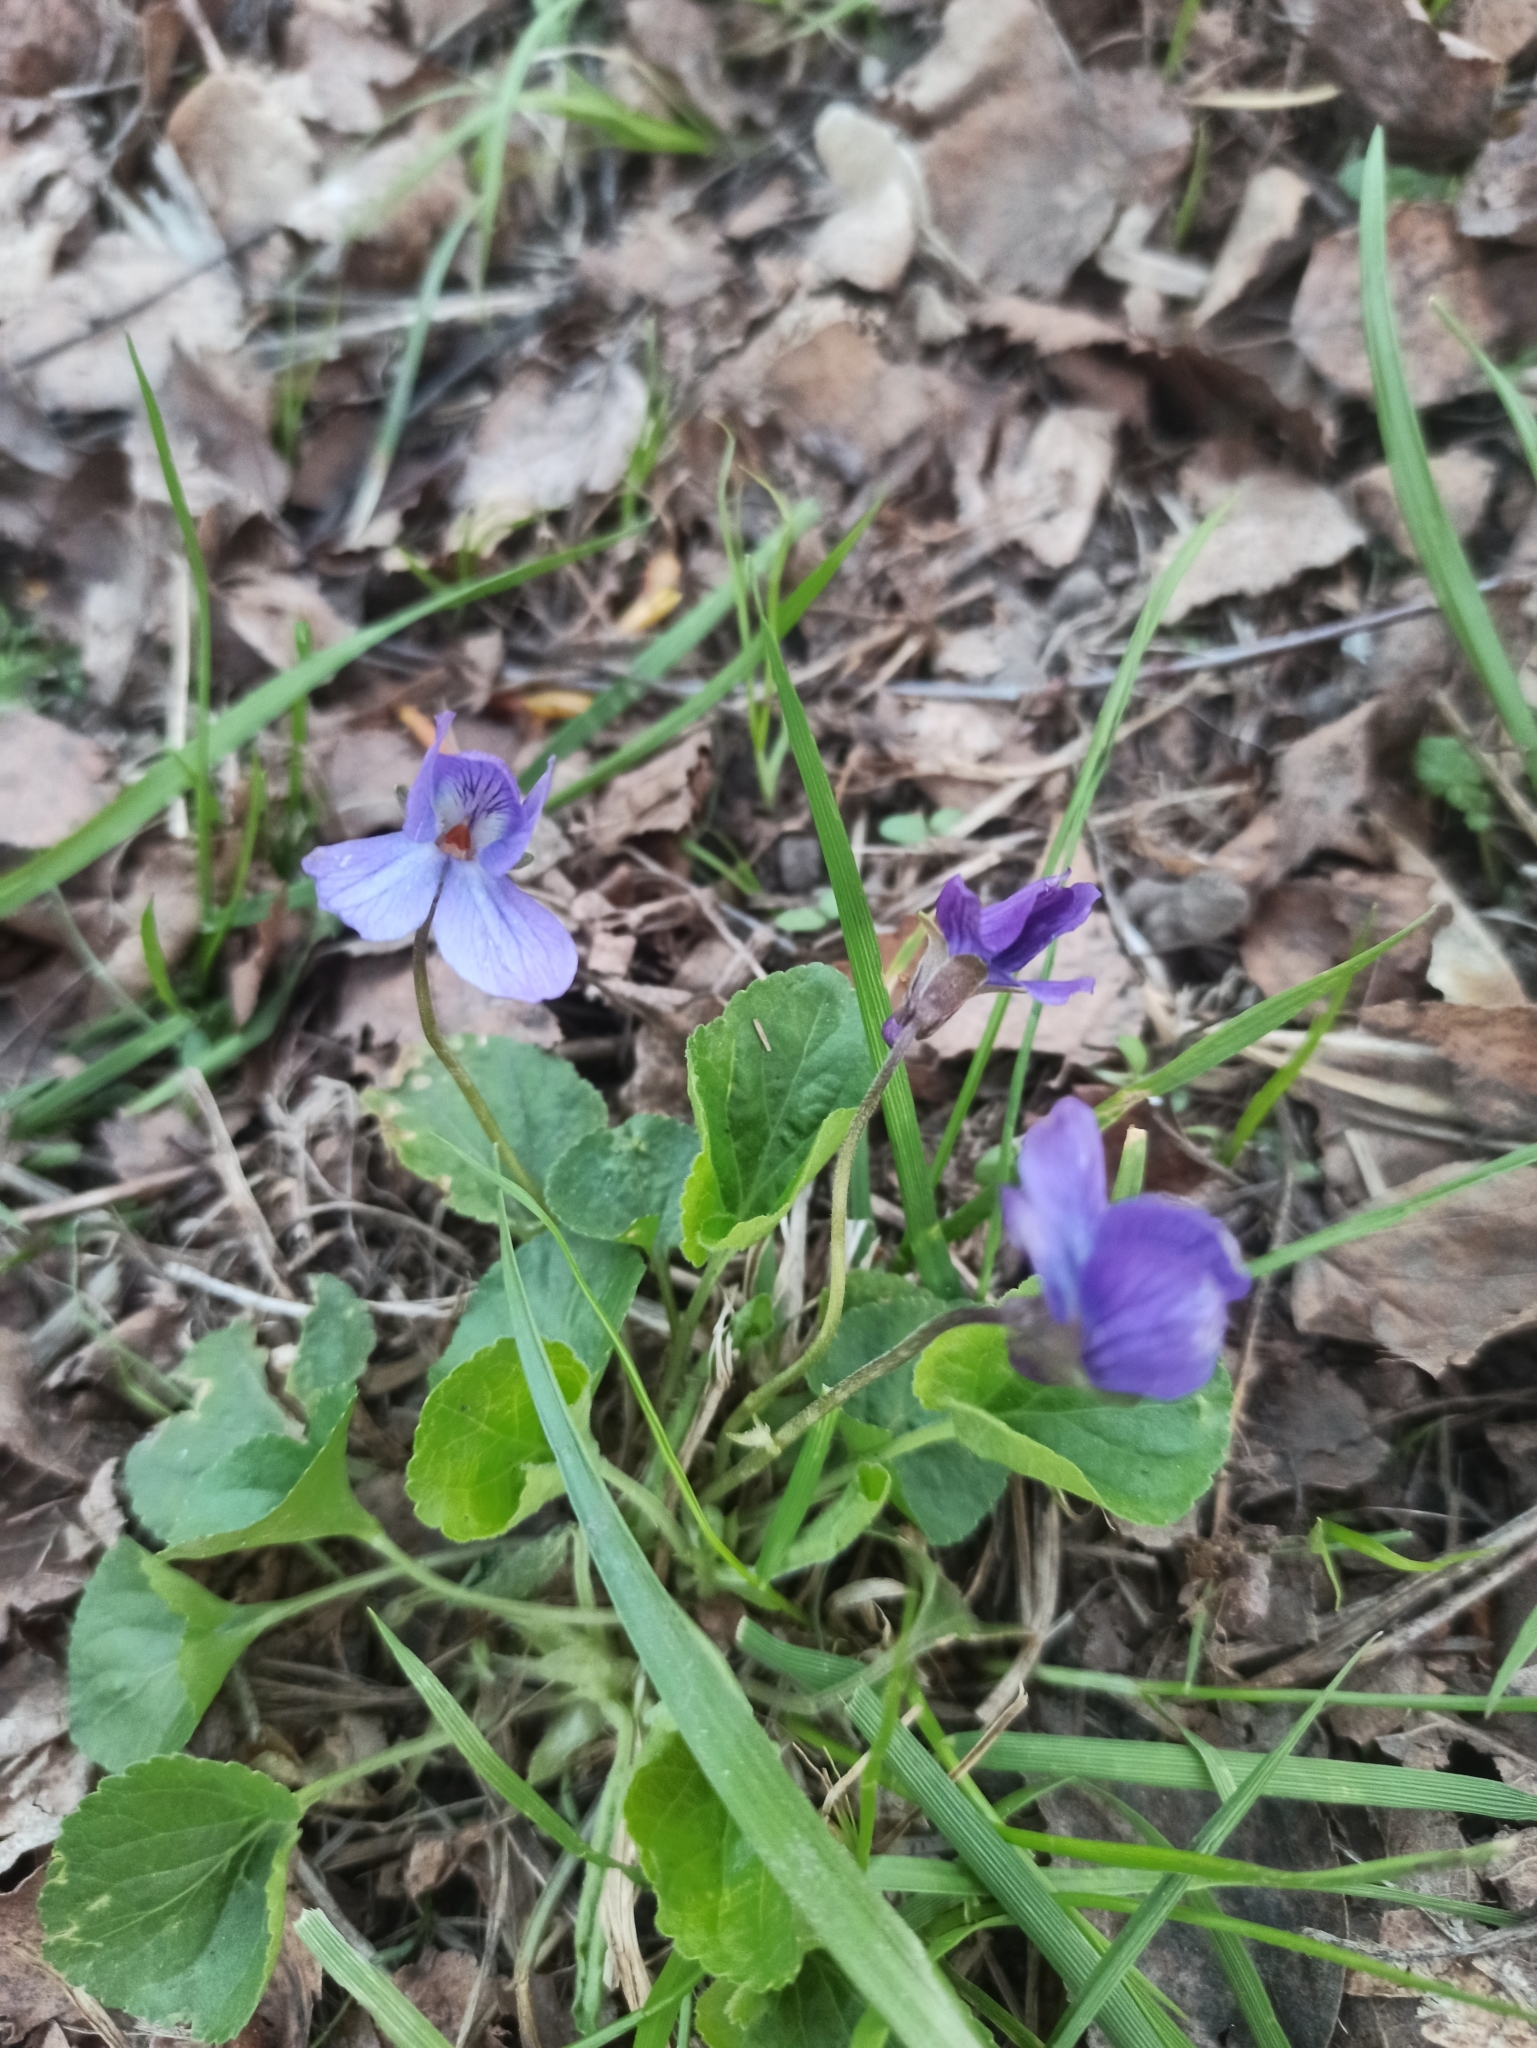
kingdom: Plantae
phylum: Tracheophyta
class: Magnoliopsida
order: Malpighiales
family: Violaceae
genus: Viola
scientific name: Viola odorata
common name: Sweet violet
